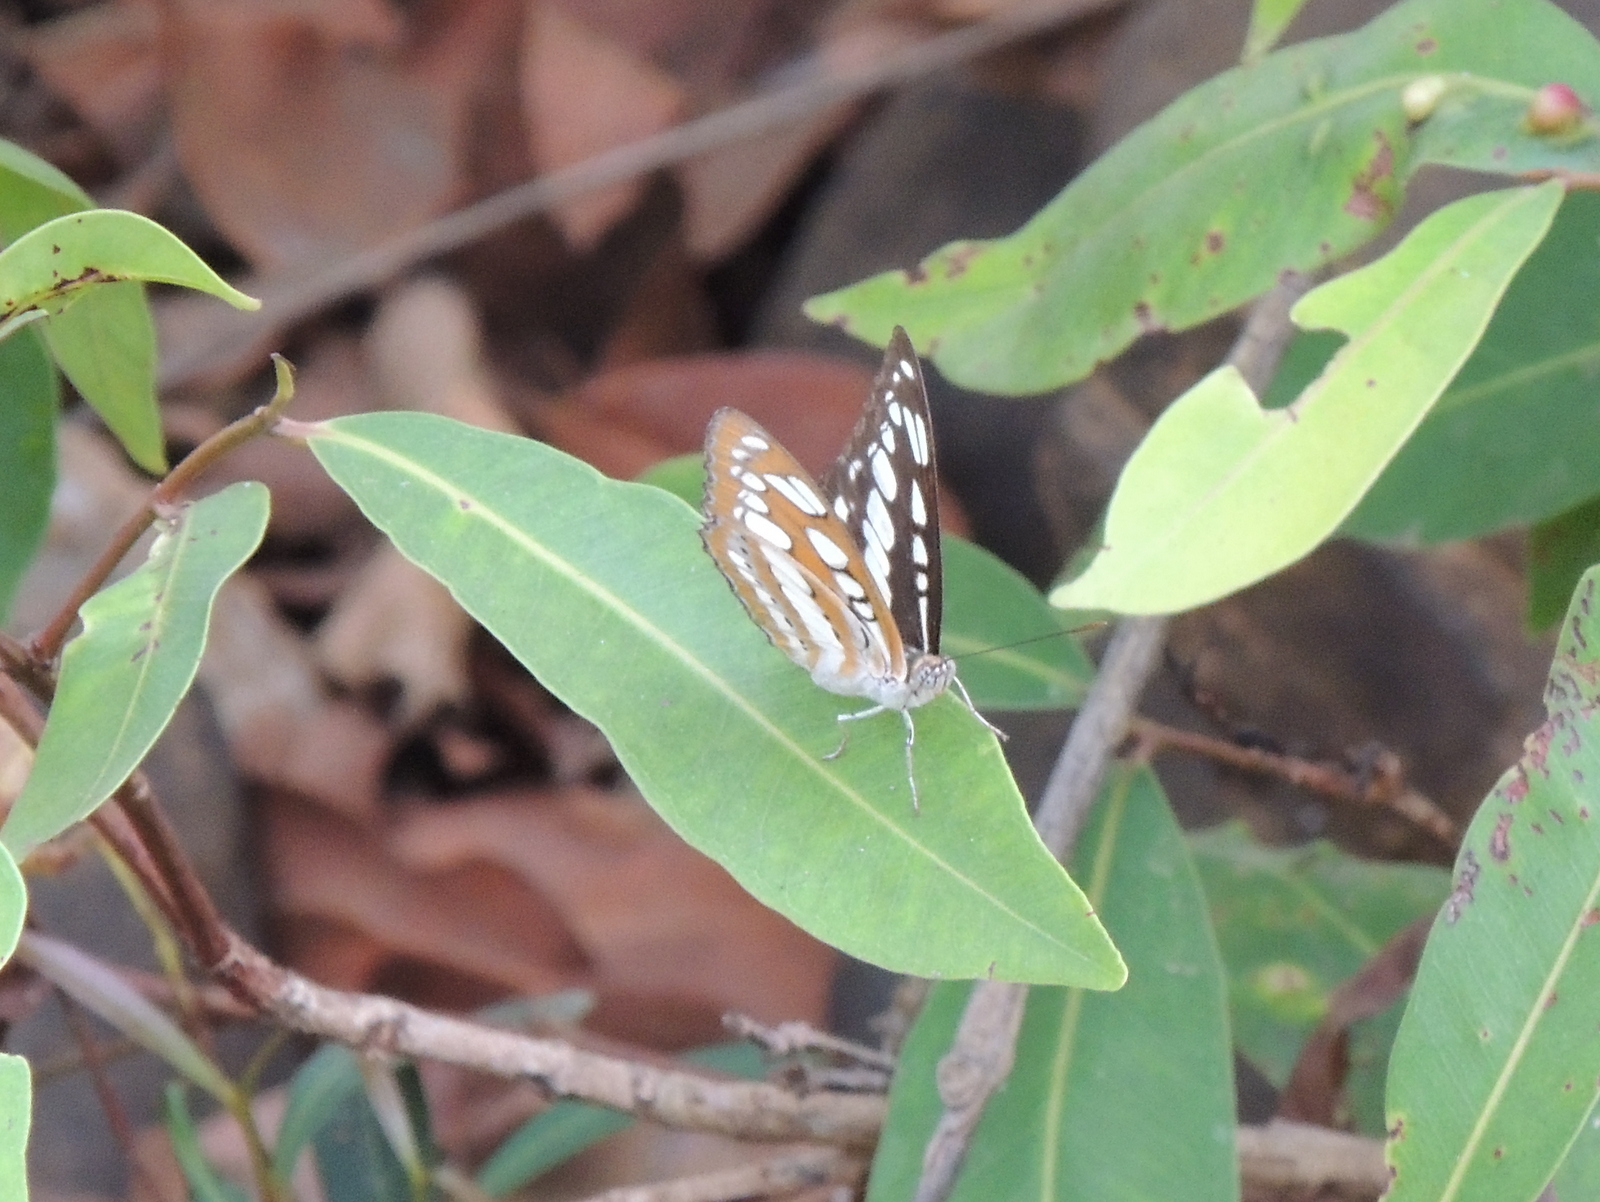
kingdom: Animalia
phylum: Arthropoda
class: Insecta
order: Lepidoptera
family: Nymphalidae
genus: Parathyma
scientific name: Parathyma perius
